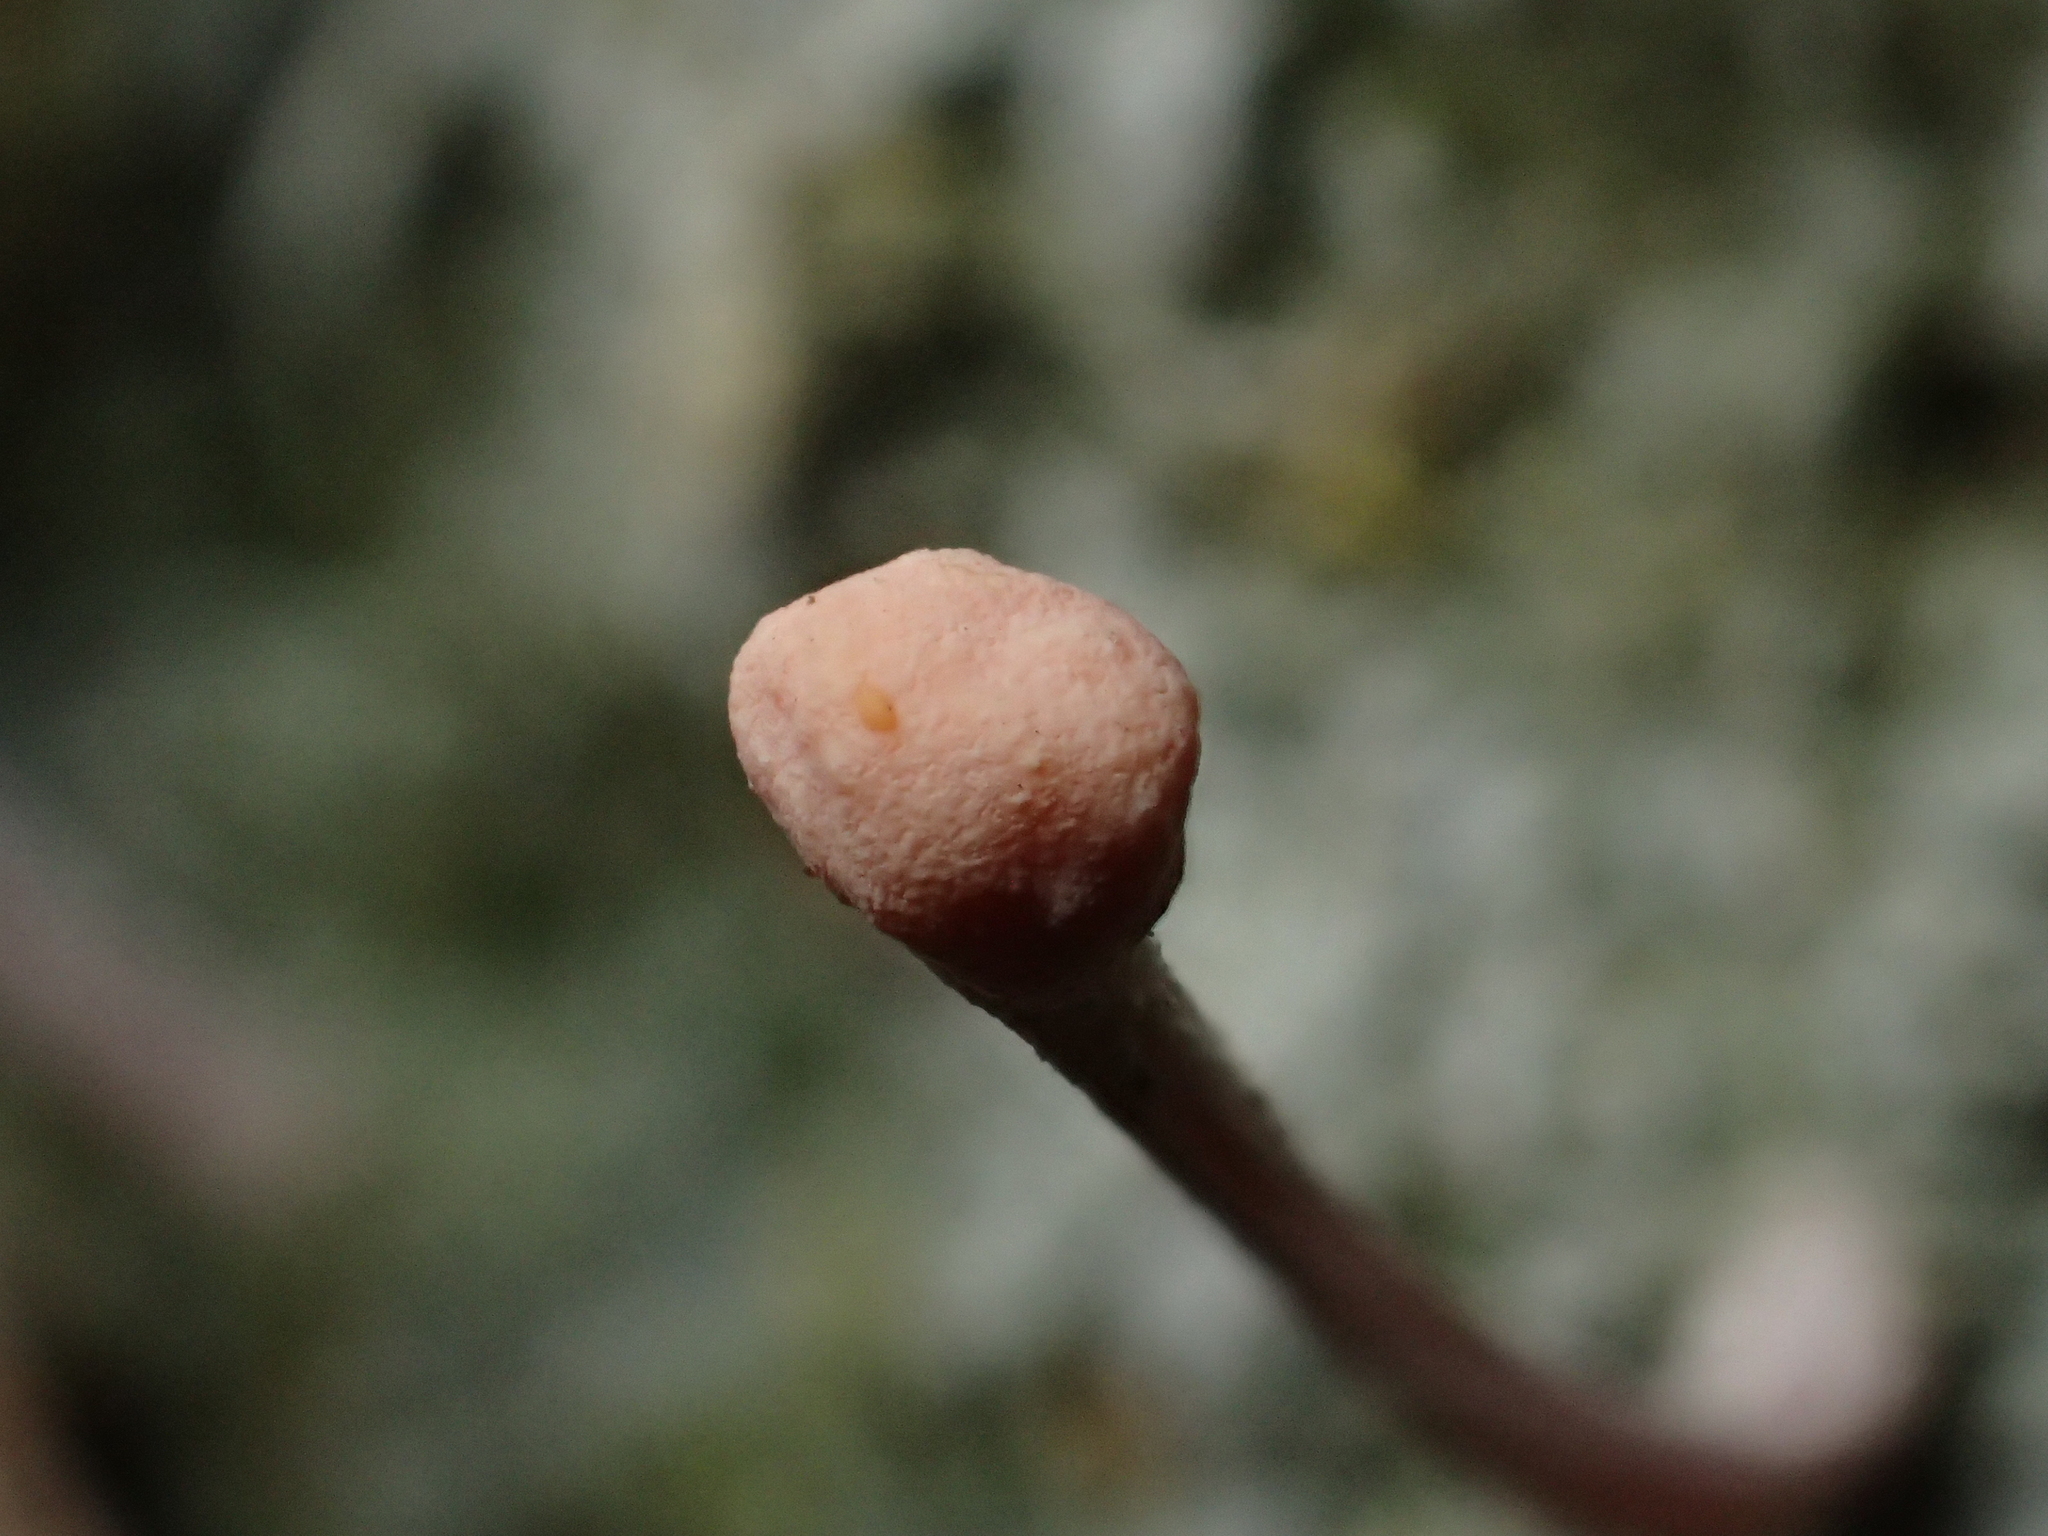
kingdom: Fungi
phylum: Ascomycota
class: Lecanoromycetes
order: Pertusariales
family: Icmadophilaceae
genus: Dibaeis
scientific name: Dibaeis arcuata
